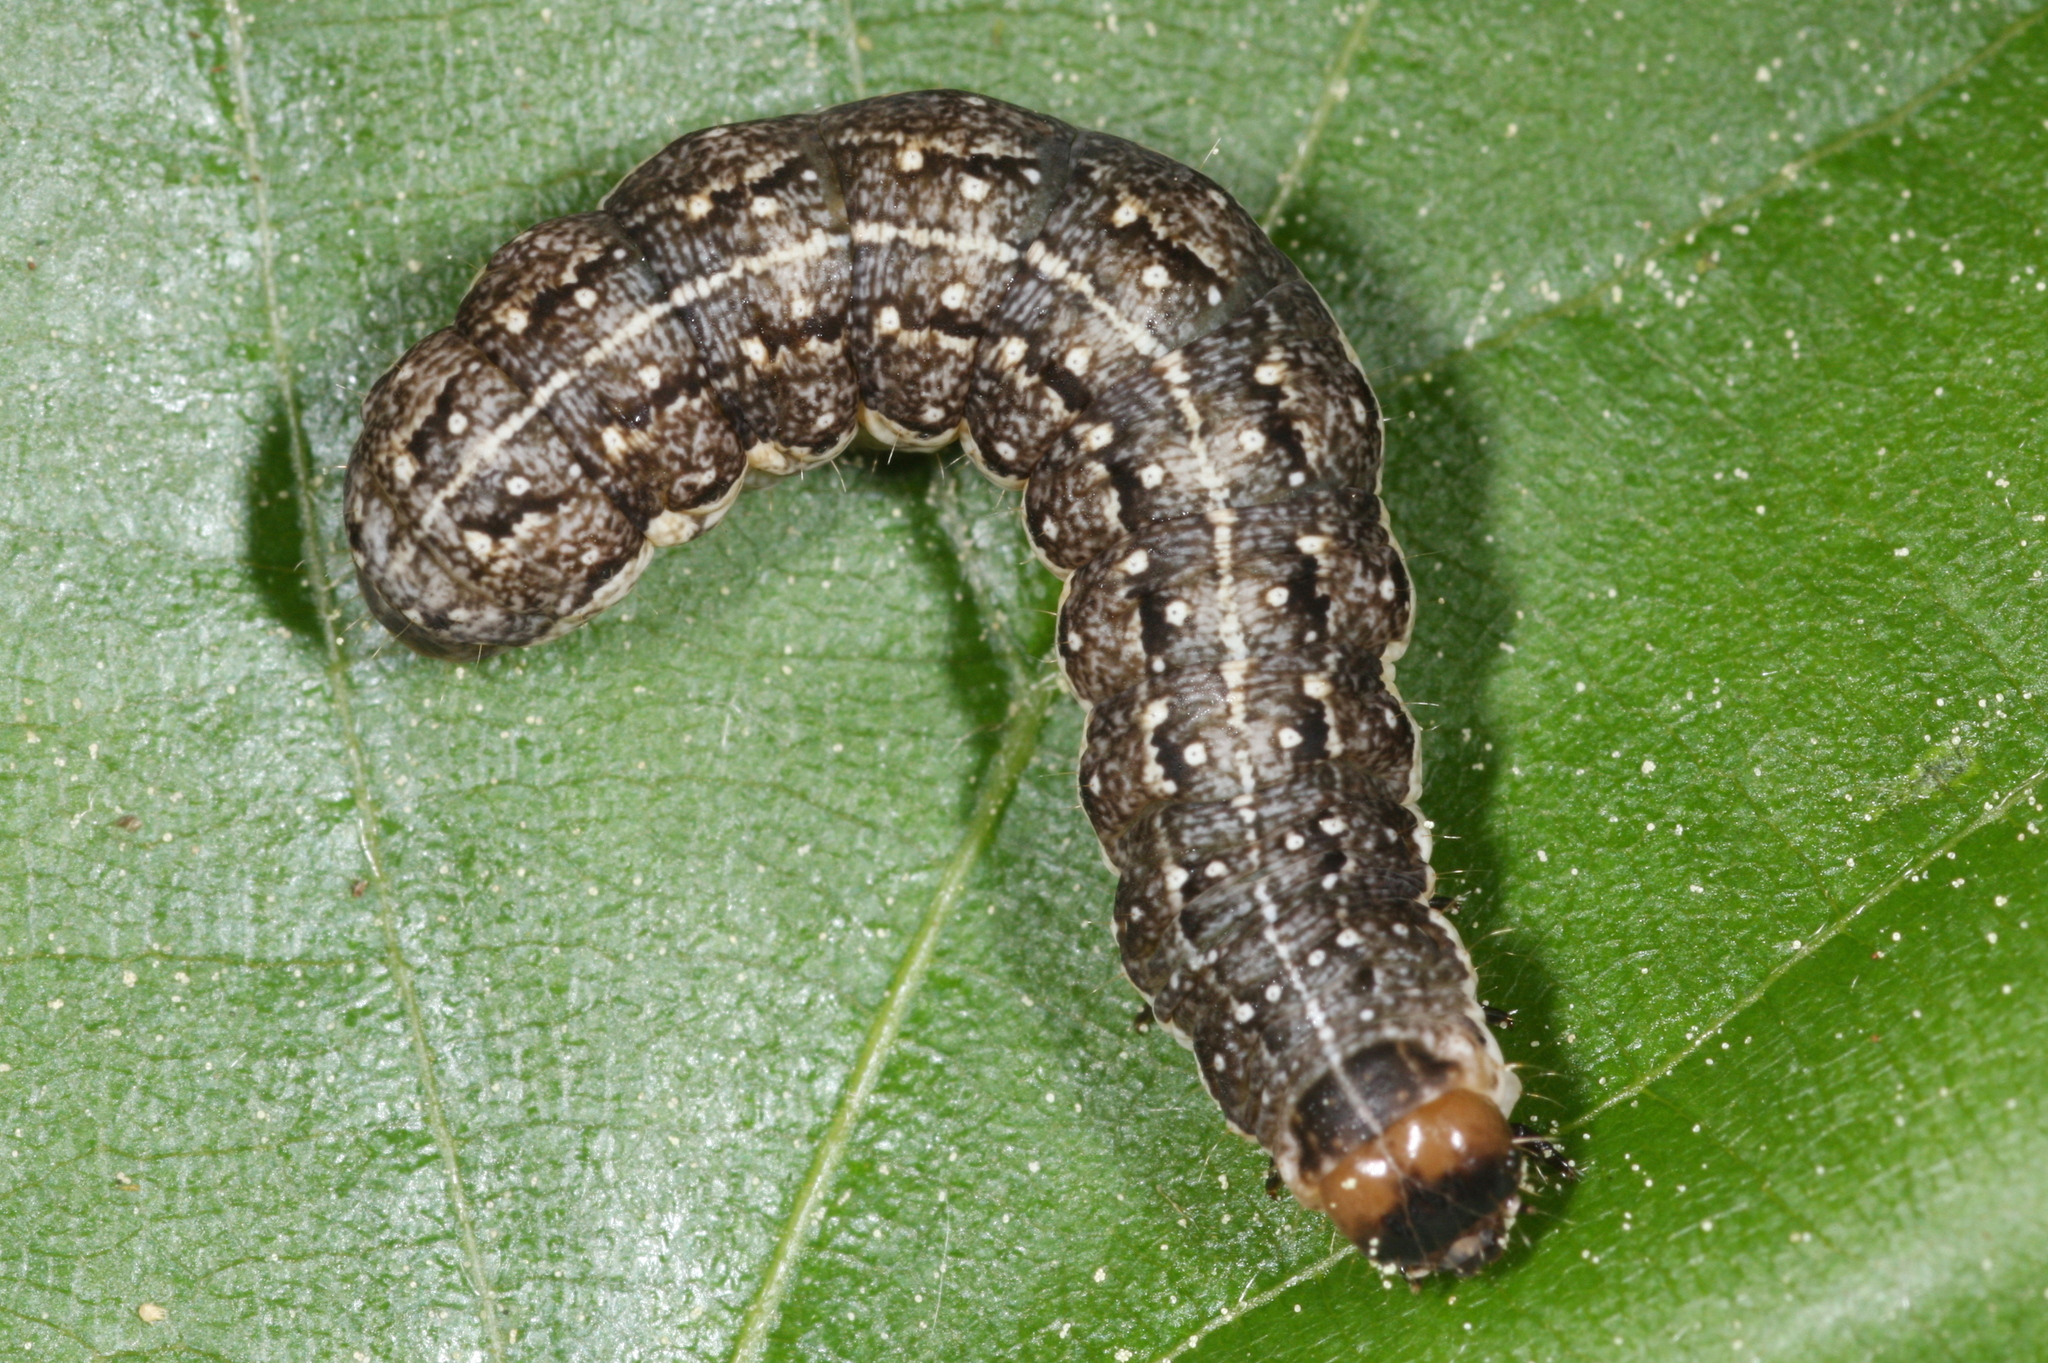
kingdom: Animalia
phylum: Arthropoda
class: Insecta
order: Lepidoptera
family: Noctuidae
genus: Tiliacea
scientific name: Tiliacea citrago
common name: Orange sallow
